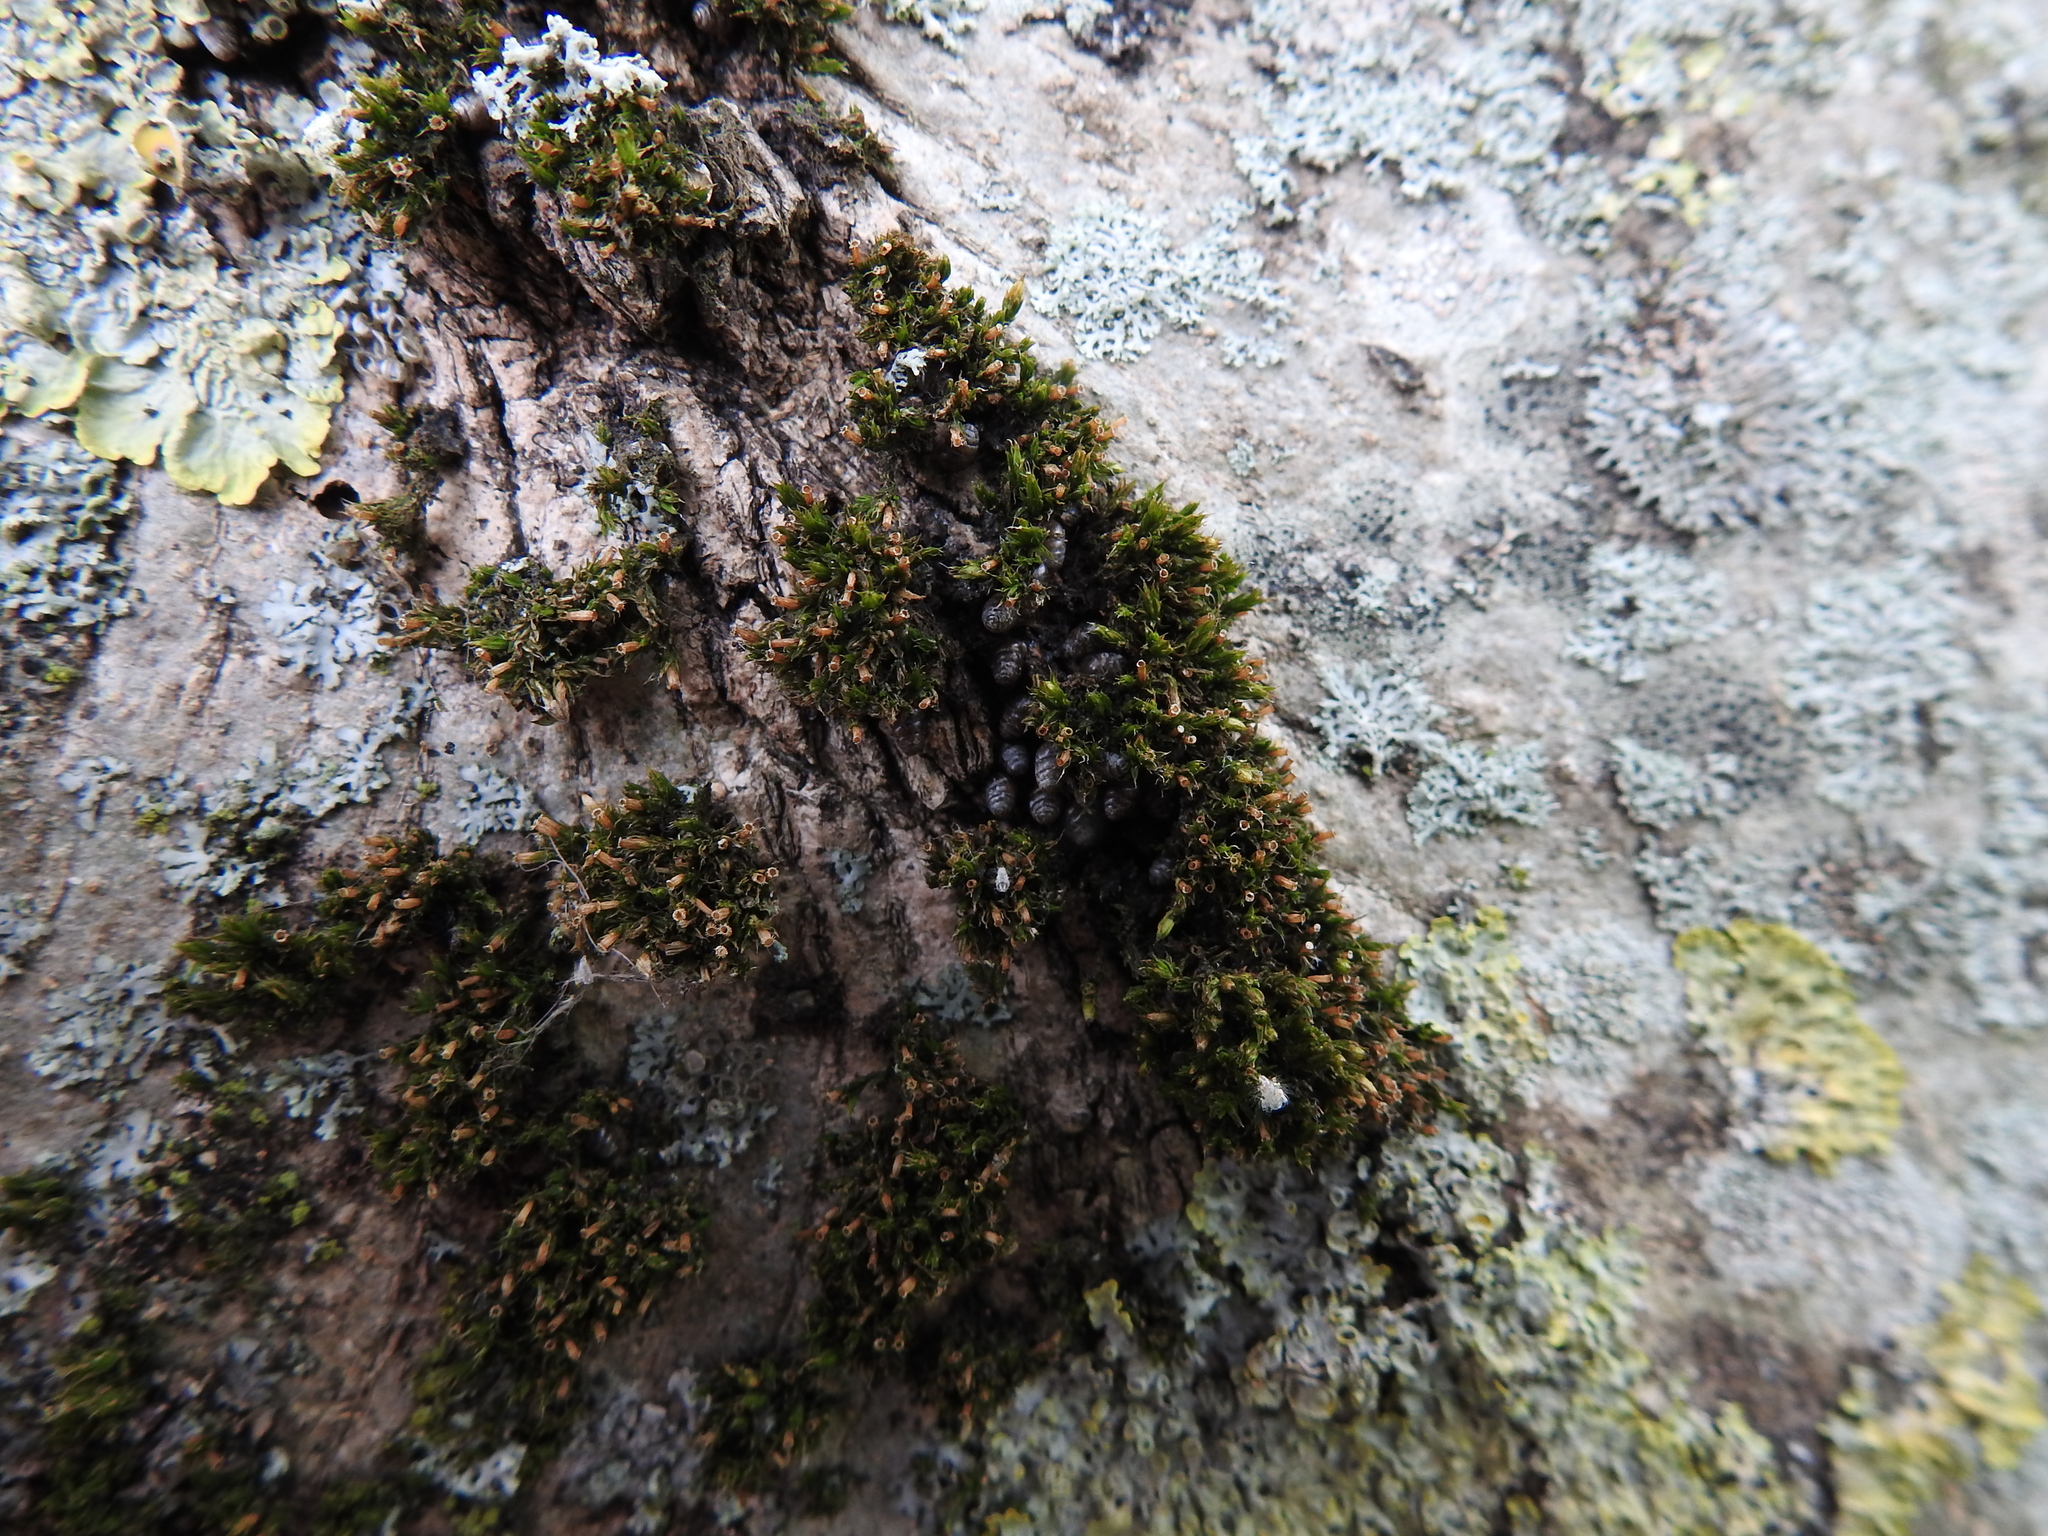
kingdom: Plantae
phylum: Bryophyta
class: Bryopsida
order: Orthotrichales
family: Orthotrichaceae
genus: Orthotrichum
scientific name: Orthotrichum diaphanum
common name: White-tipped bristle-moss
